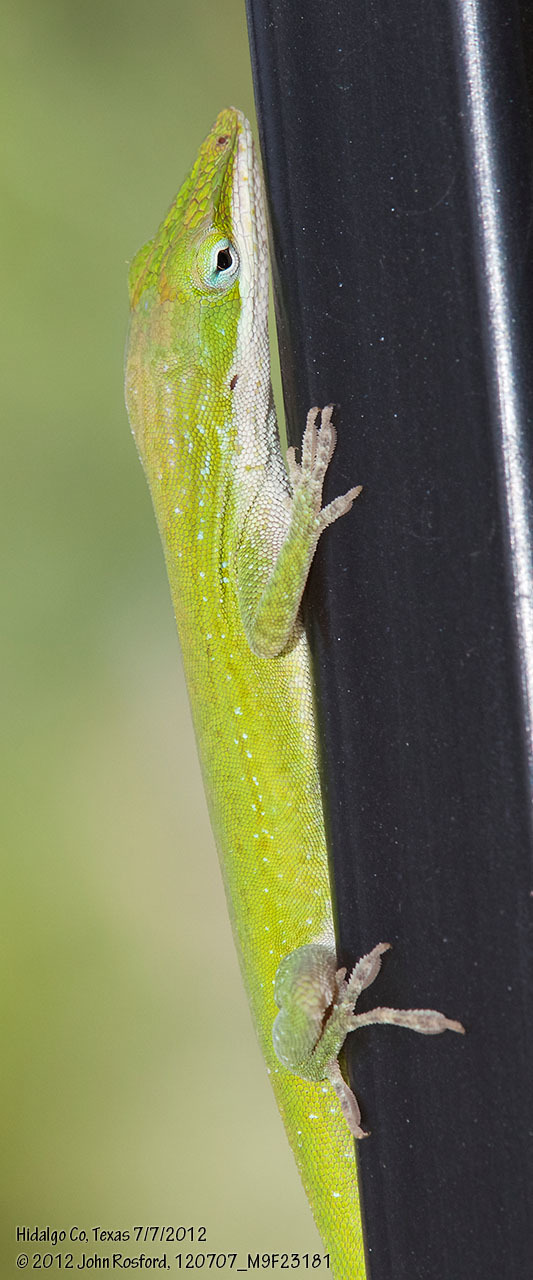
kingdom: Animalia
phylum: Chordata
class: Squamata
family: Dactyloidae
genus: Anolis
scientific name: Anolis carolinensis
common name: Green anole
